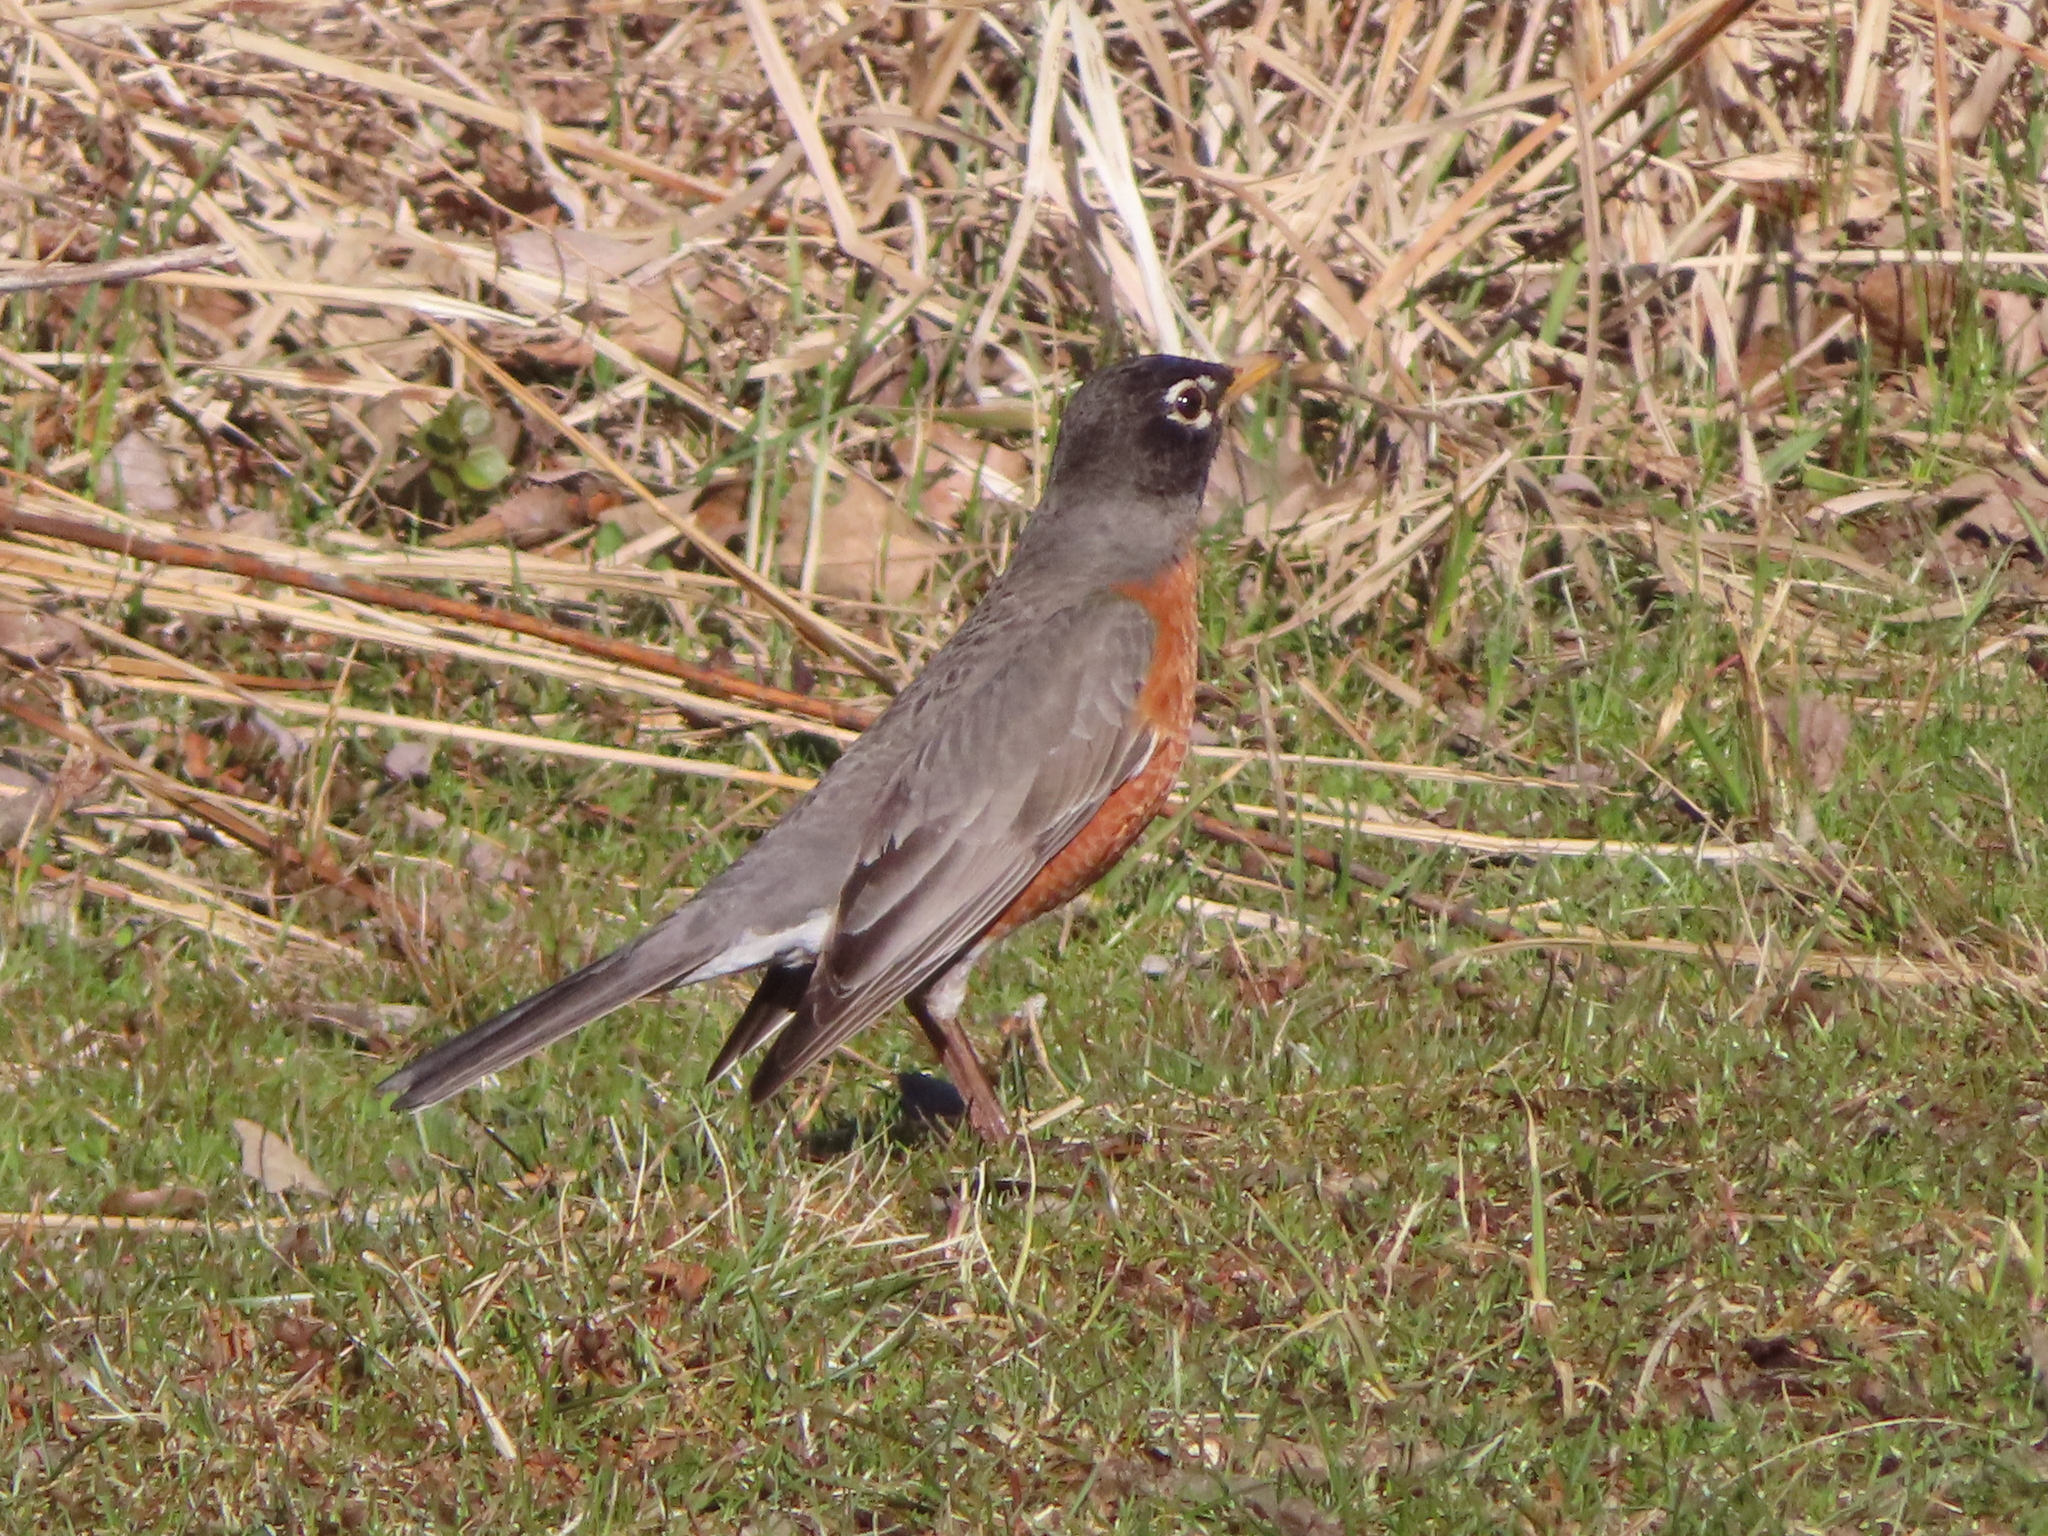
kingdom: Animalia
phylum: Chordata
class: Aves
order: Passeriformes
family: Turdidae
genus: Turdus
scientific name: Turdus migratorius
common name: American robin
